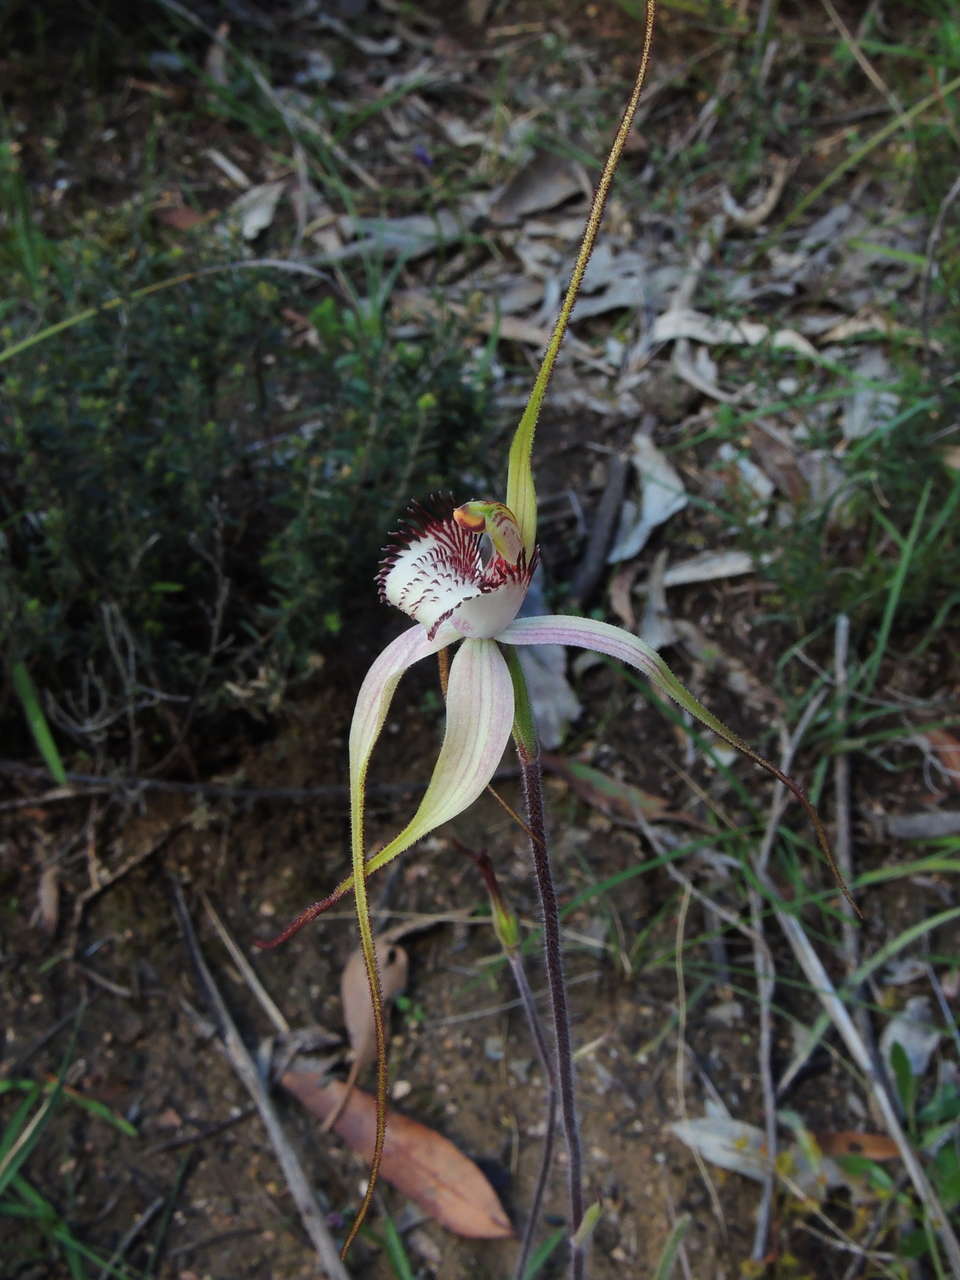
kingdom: Plantae
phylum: Tracheophyta
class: Liliopsida
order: Asparagales
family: Orchidaceae
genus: Caladenia
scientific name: Caladenia venusta
